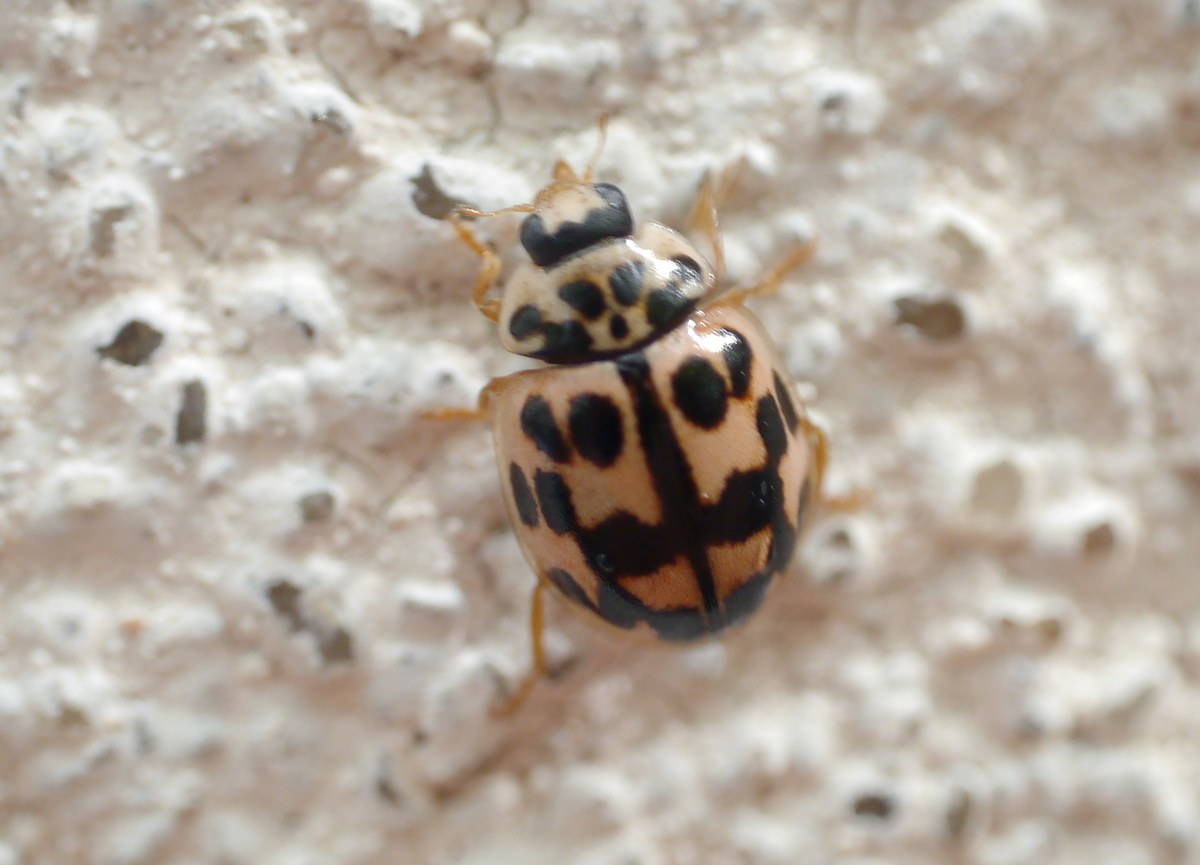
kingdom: Animalia
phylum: Arthropoda
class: Insecta
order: Coleoptera
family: Coccinellidae
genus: Oenopia
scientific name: Oenopia conglobata
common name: Ladybird beetle
